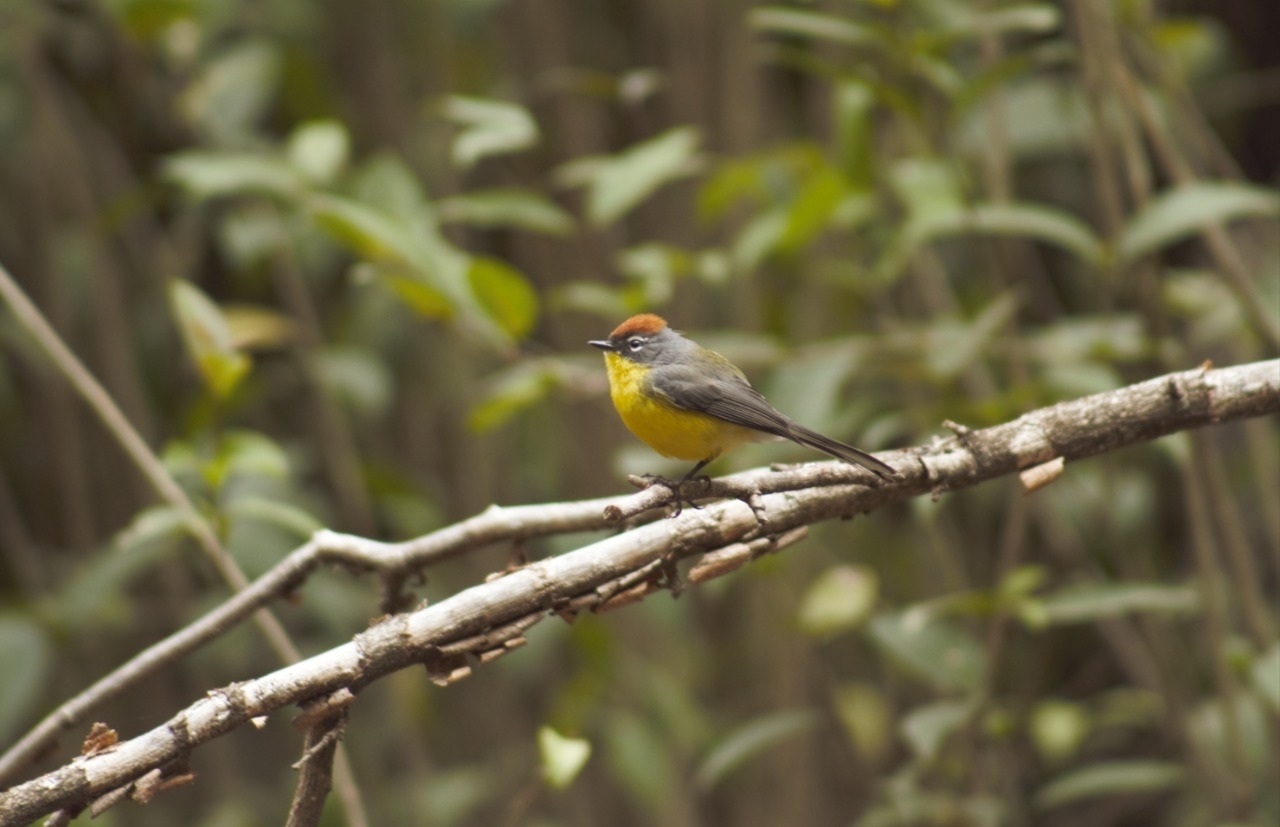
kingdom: Animalia
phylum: Chordata
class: Aves
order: Passeriformes
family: Parulidae
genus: Myioborus
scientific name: Myioborus brunniceps
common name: Brown-capped whitestart
